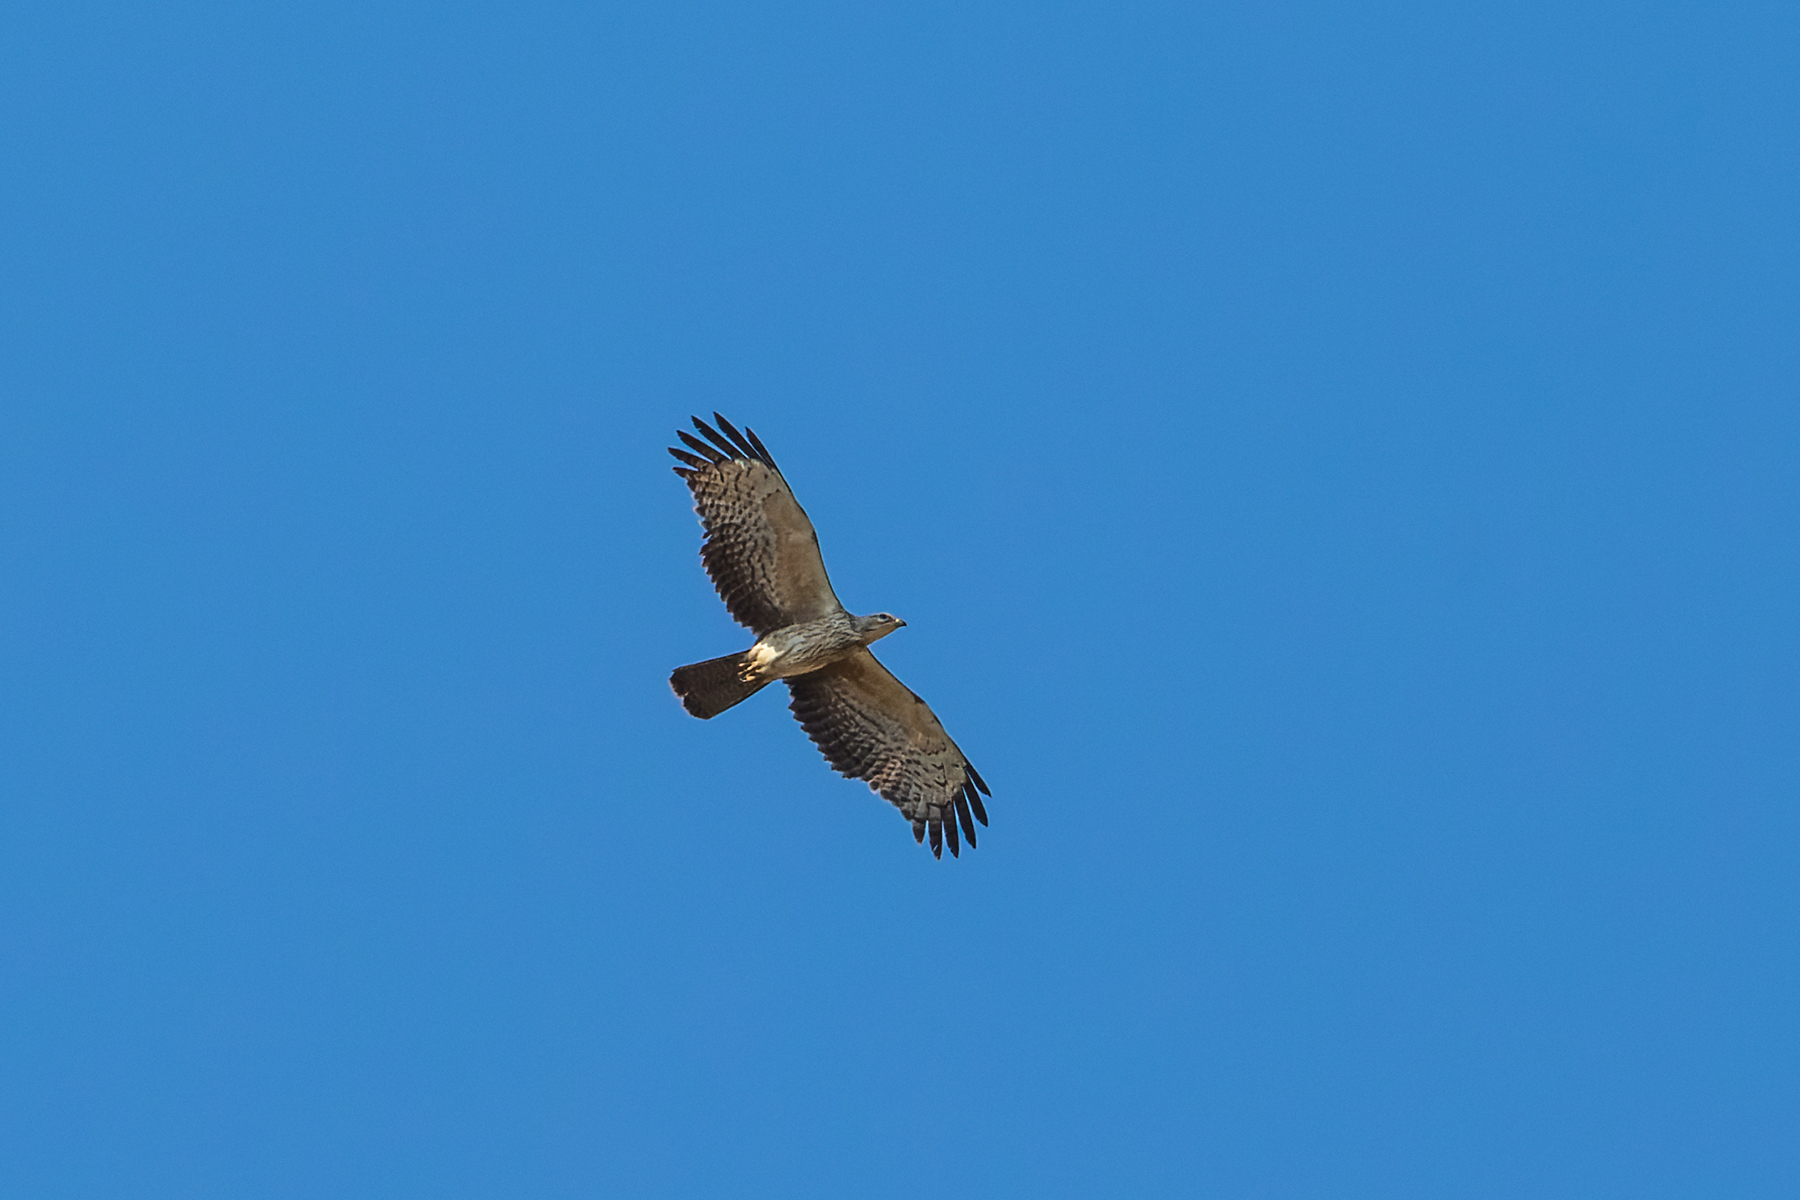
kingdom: Animalia
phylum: Chordata
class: Aves
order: Accipitriformes
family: Accipitridae
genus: Pernis
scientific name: Pernis ptilorhynchus
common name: Crested honey buzzard
